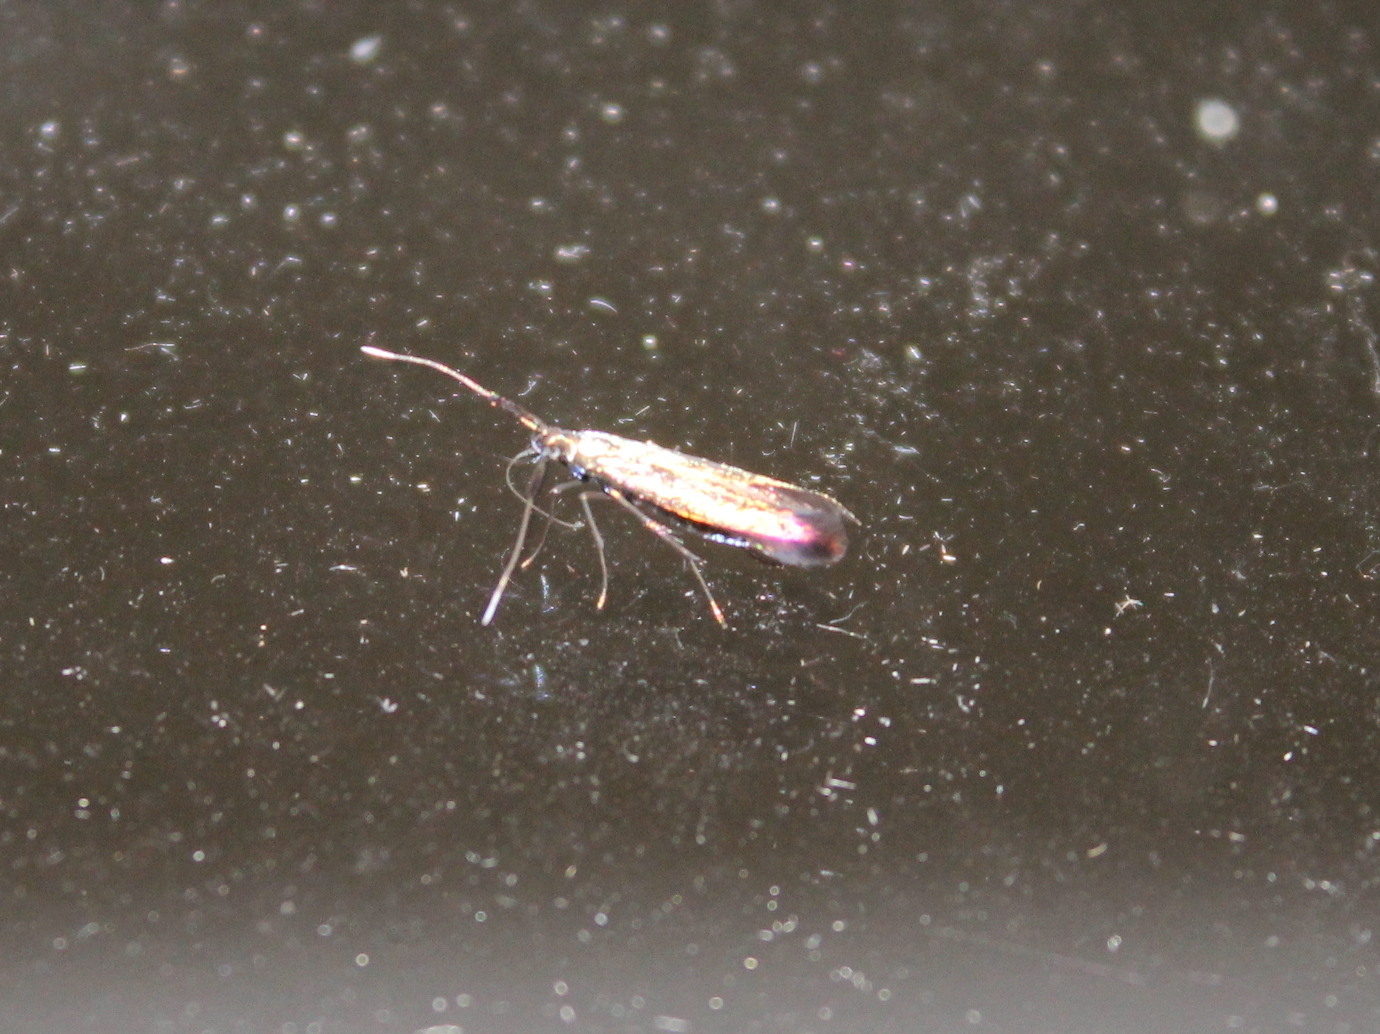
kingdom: Animalia
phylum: Arthropoda
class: Insecta
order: Lepidoptera
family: Coleophoridae
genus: Coleophora
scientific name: Coleophora mayrella
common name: Meadow case-bearer
